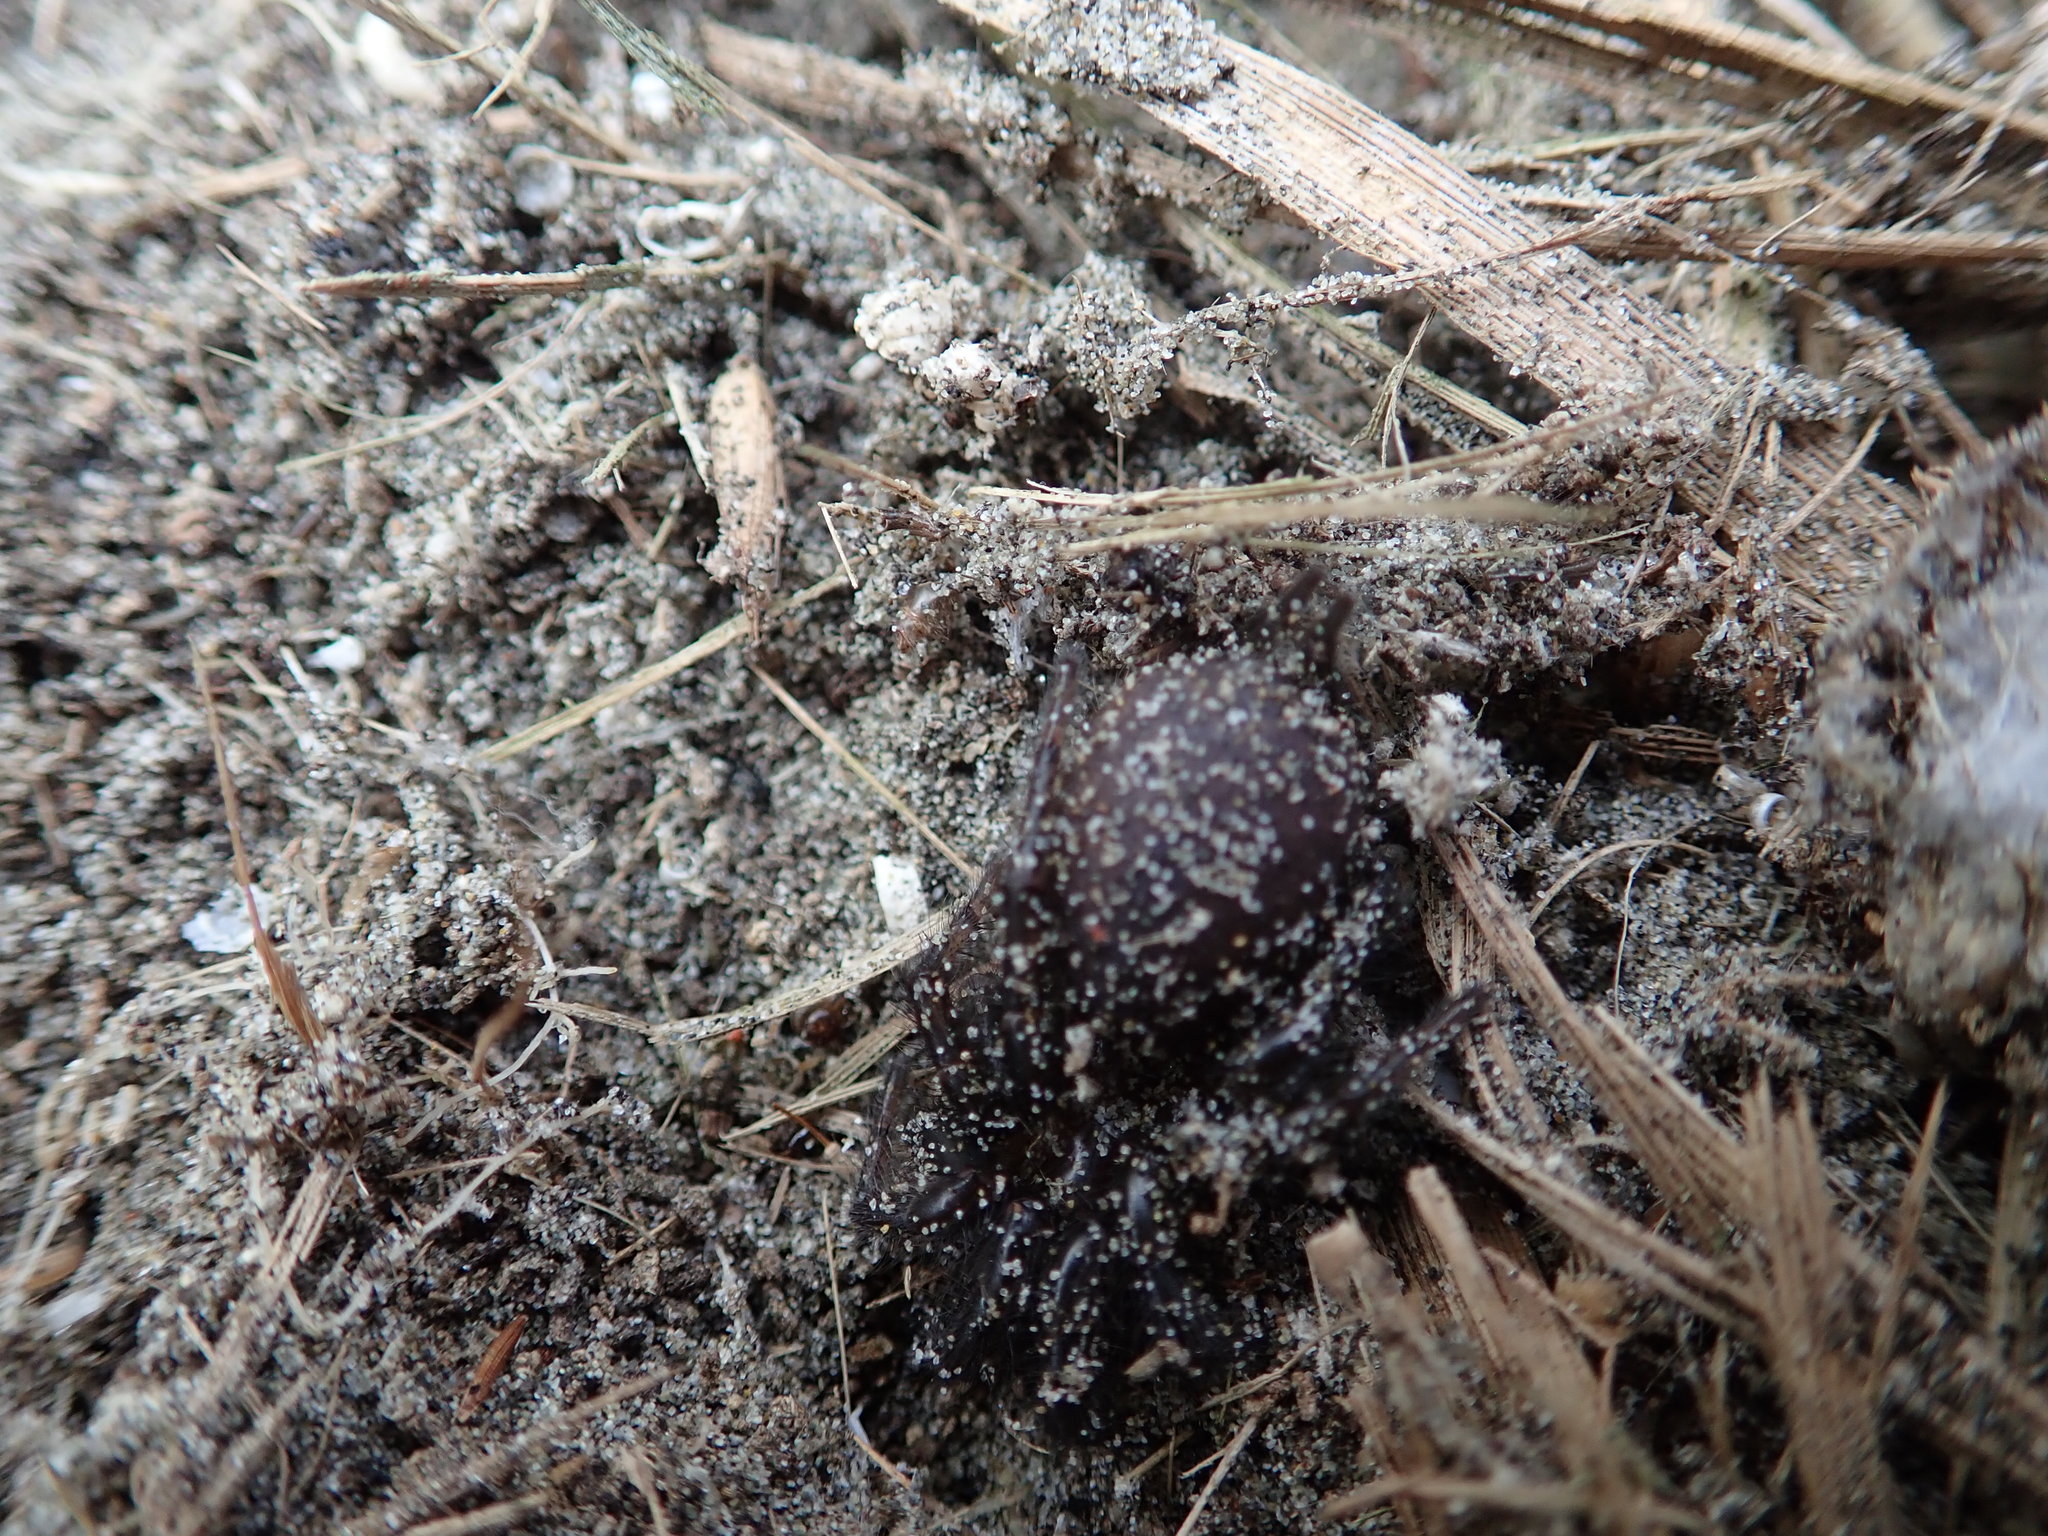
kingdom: Animalia
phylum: Arthropoda
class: Arachnida
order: Araneae
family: Porrhothelidae
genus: Porrhothele
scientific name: Porrhothele antipodiana
